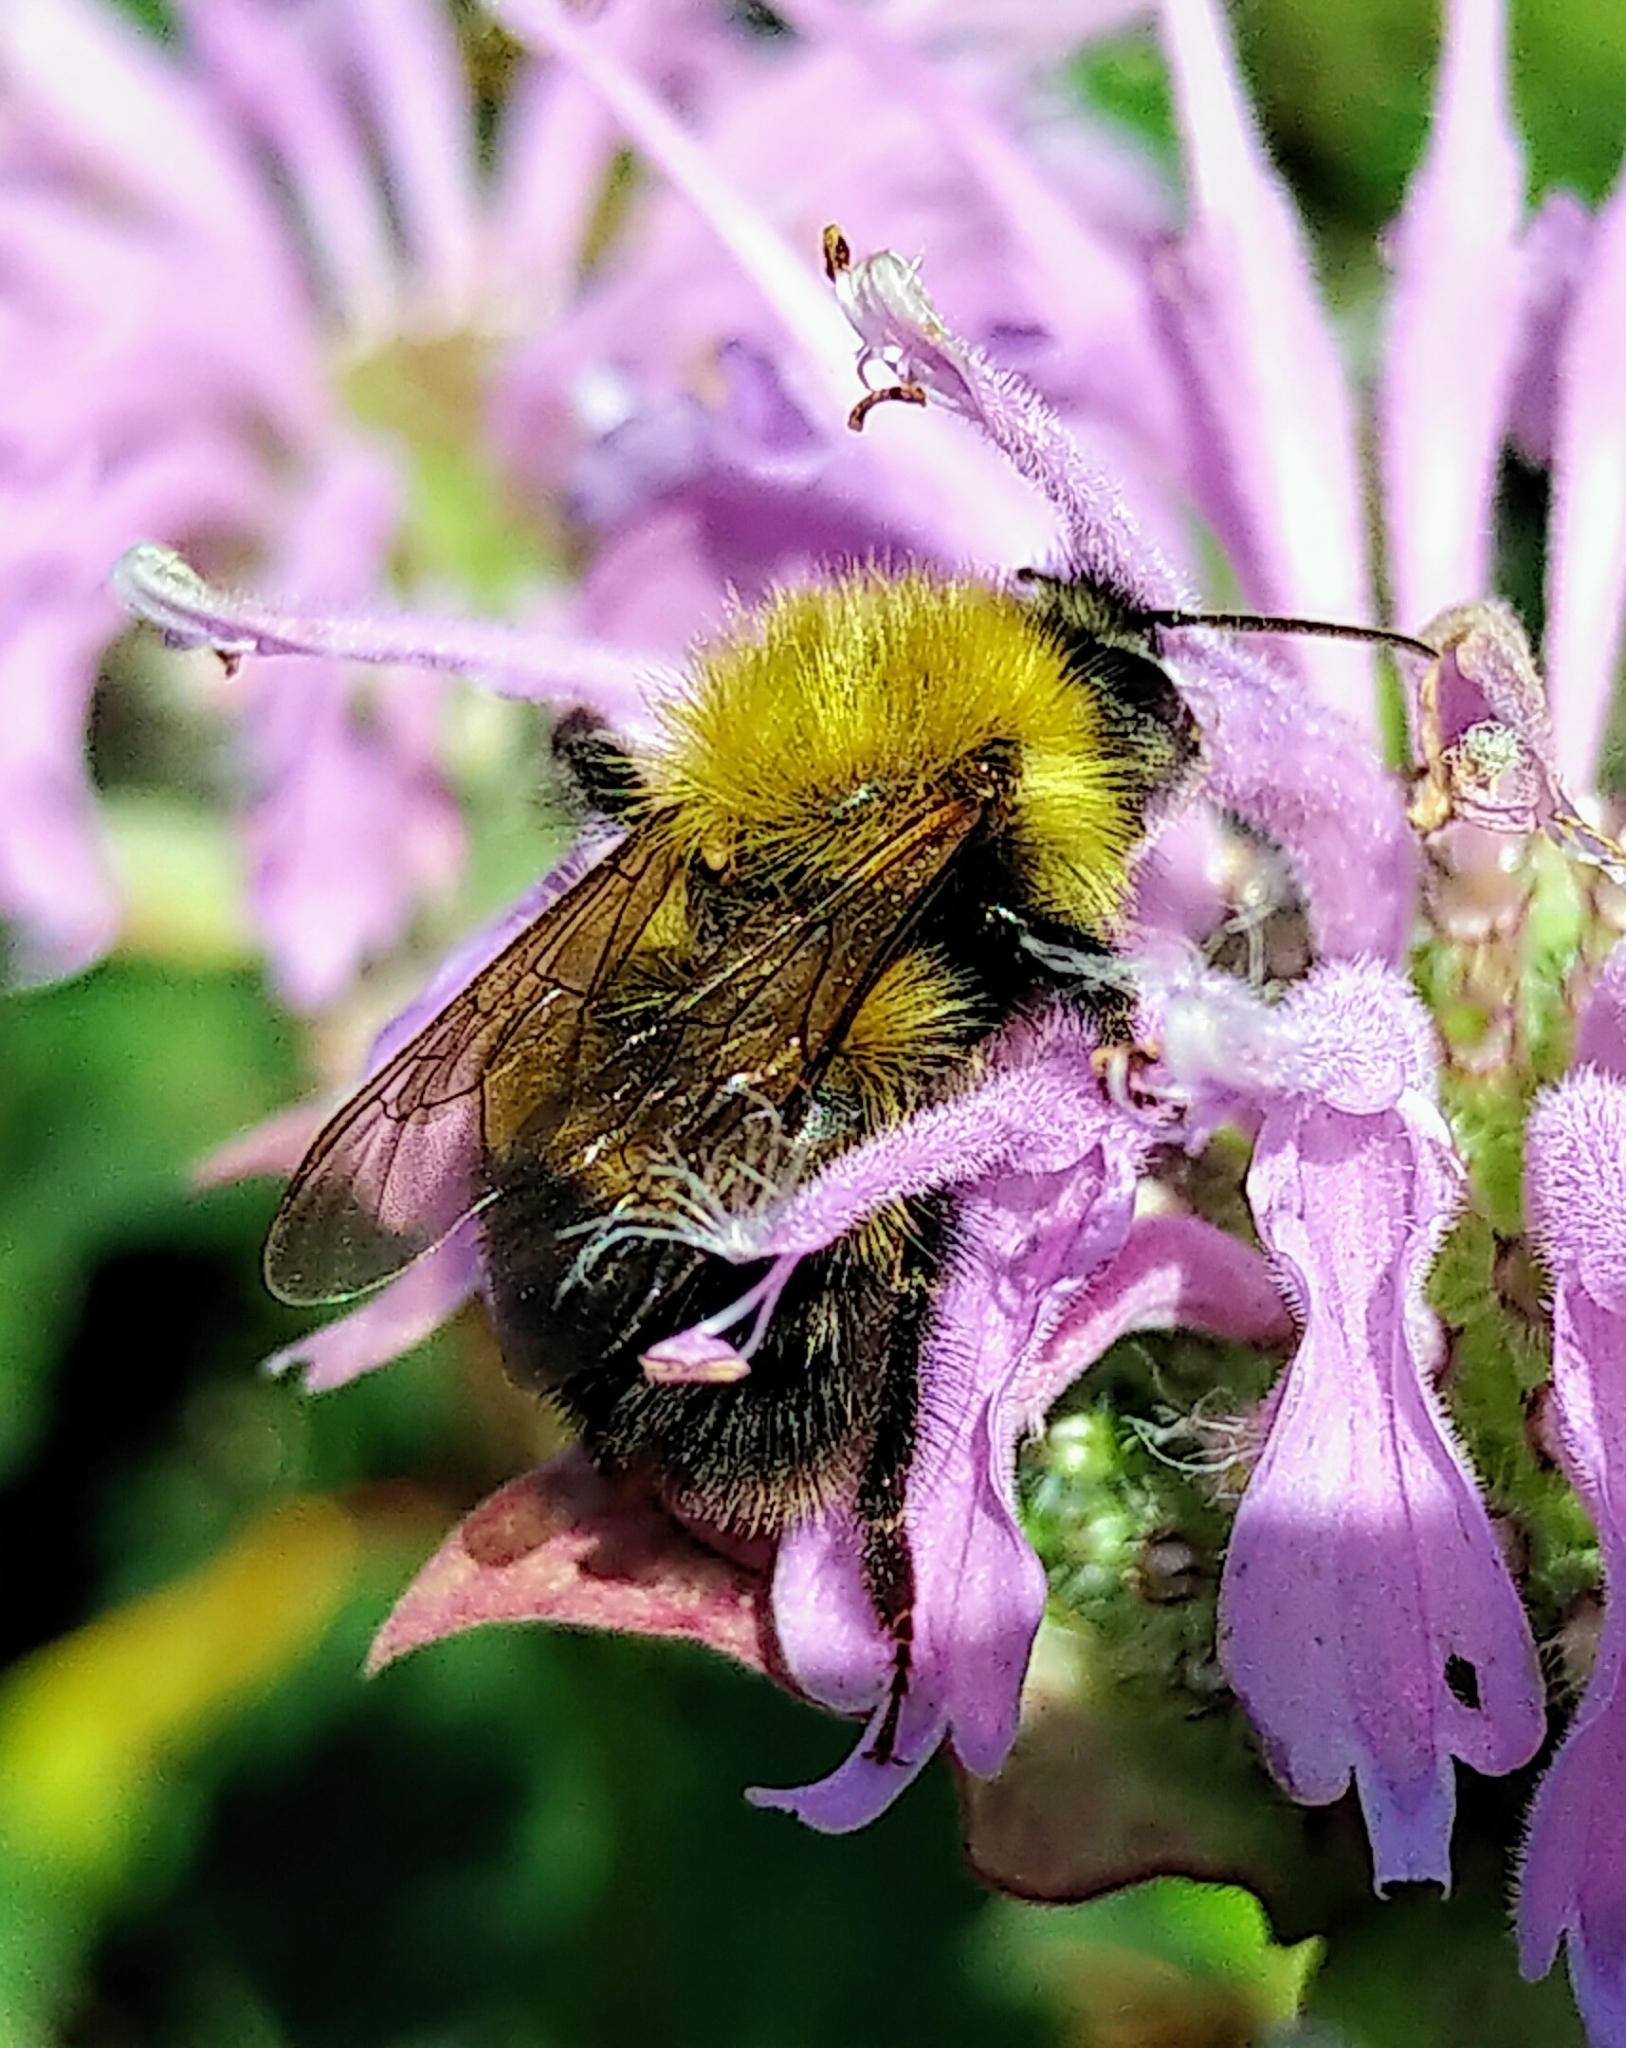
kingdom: Animalia
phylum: Arthropoda
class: Insecta
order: Hymenoptera
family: Apidae
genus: Bombus
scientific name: Bombus perplexus
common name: Confusing bumble bee
